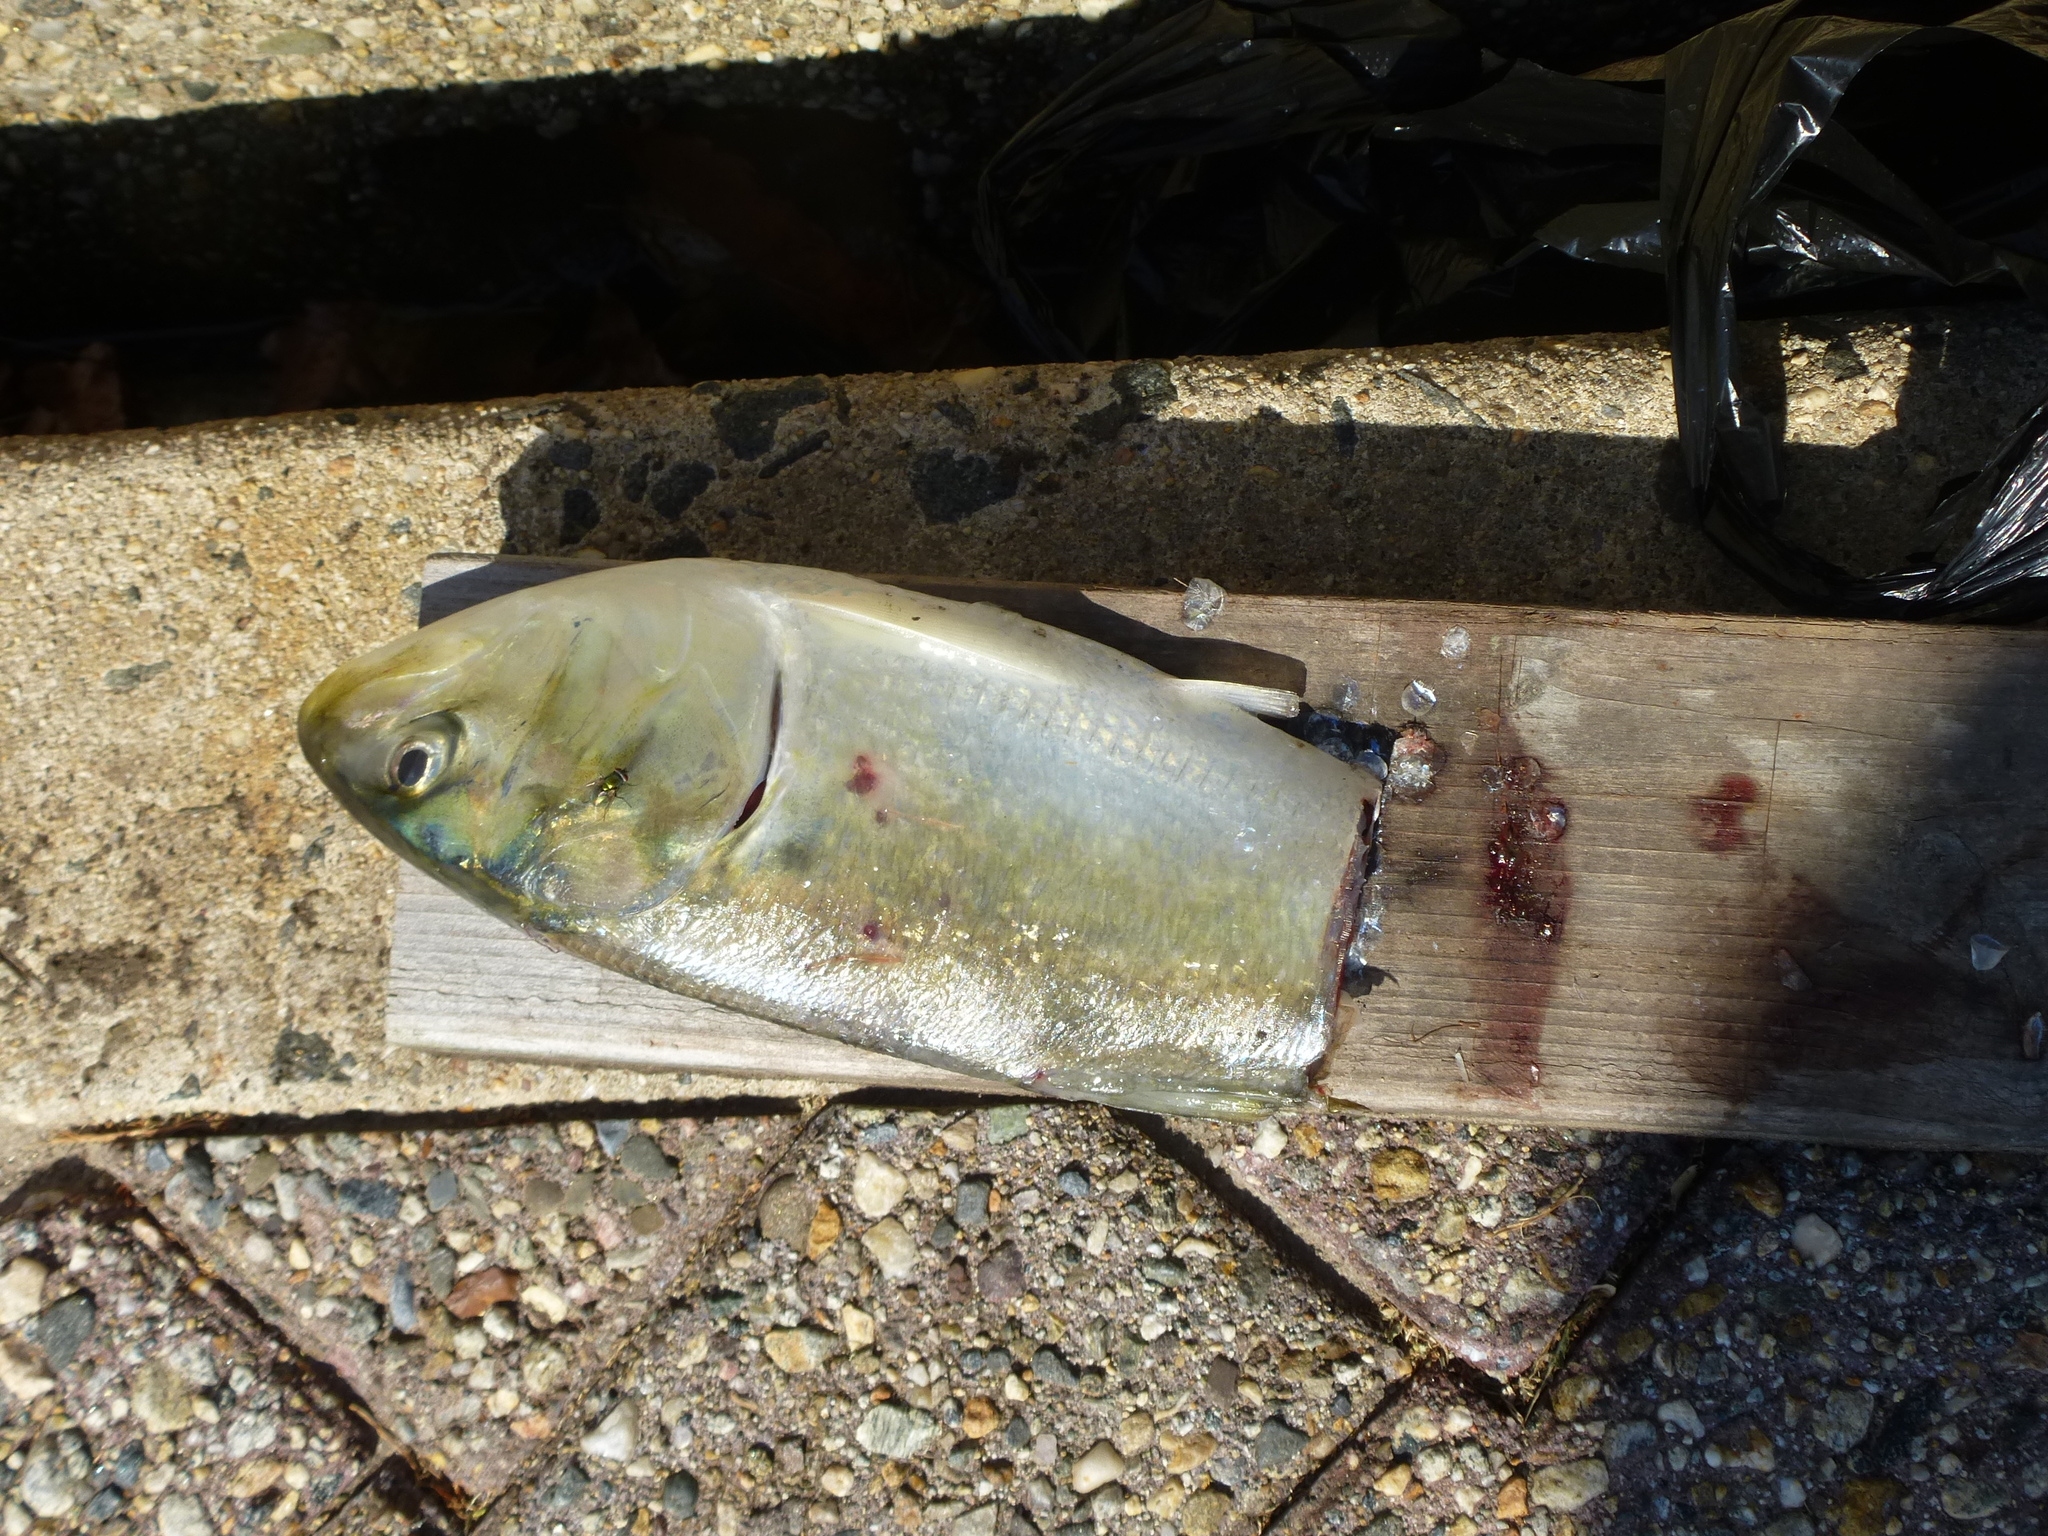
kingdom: Animalia
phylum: Chordata
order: Clupeiformes
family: Clupeidae
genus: Brevoortia
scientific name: Brevoortia tyrannus
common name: Atlantic menhaden
